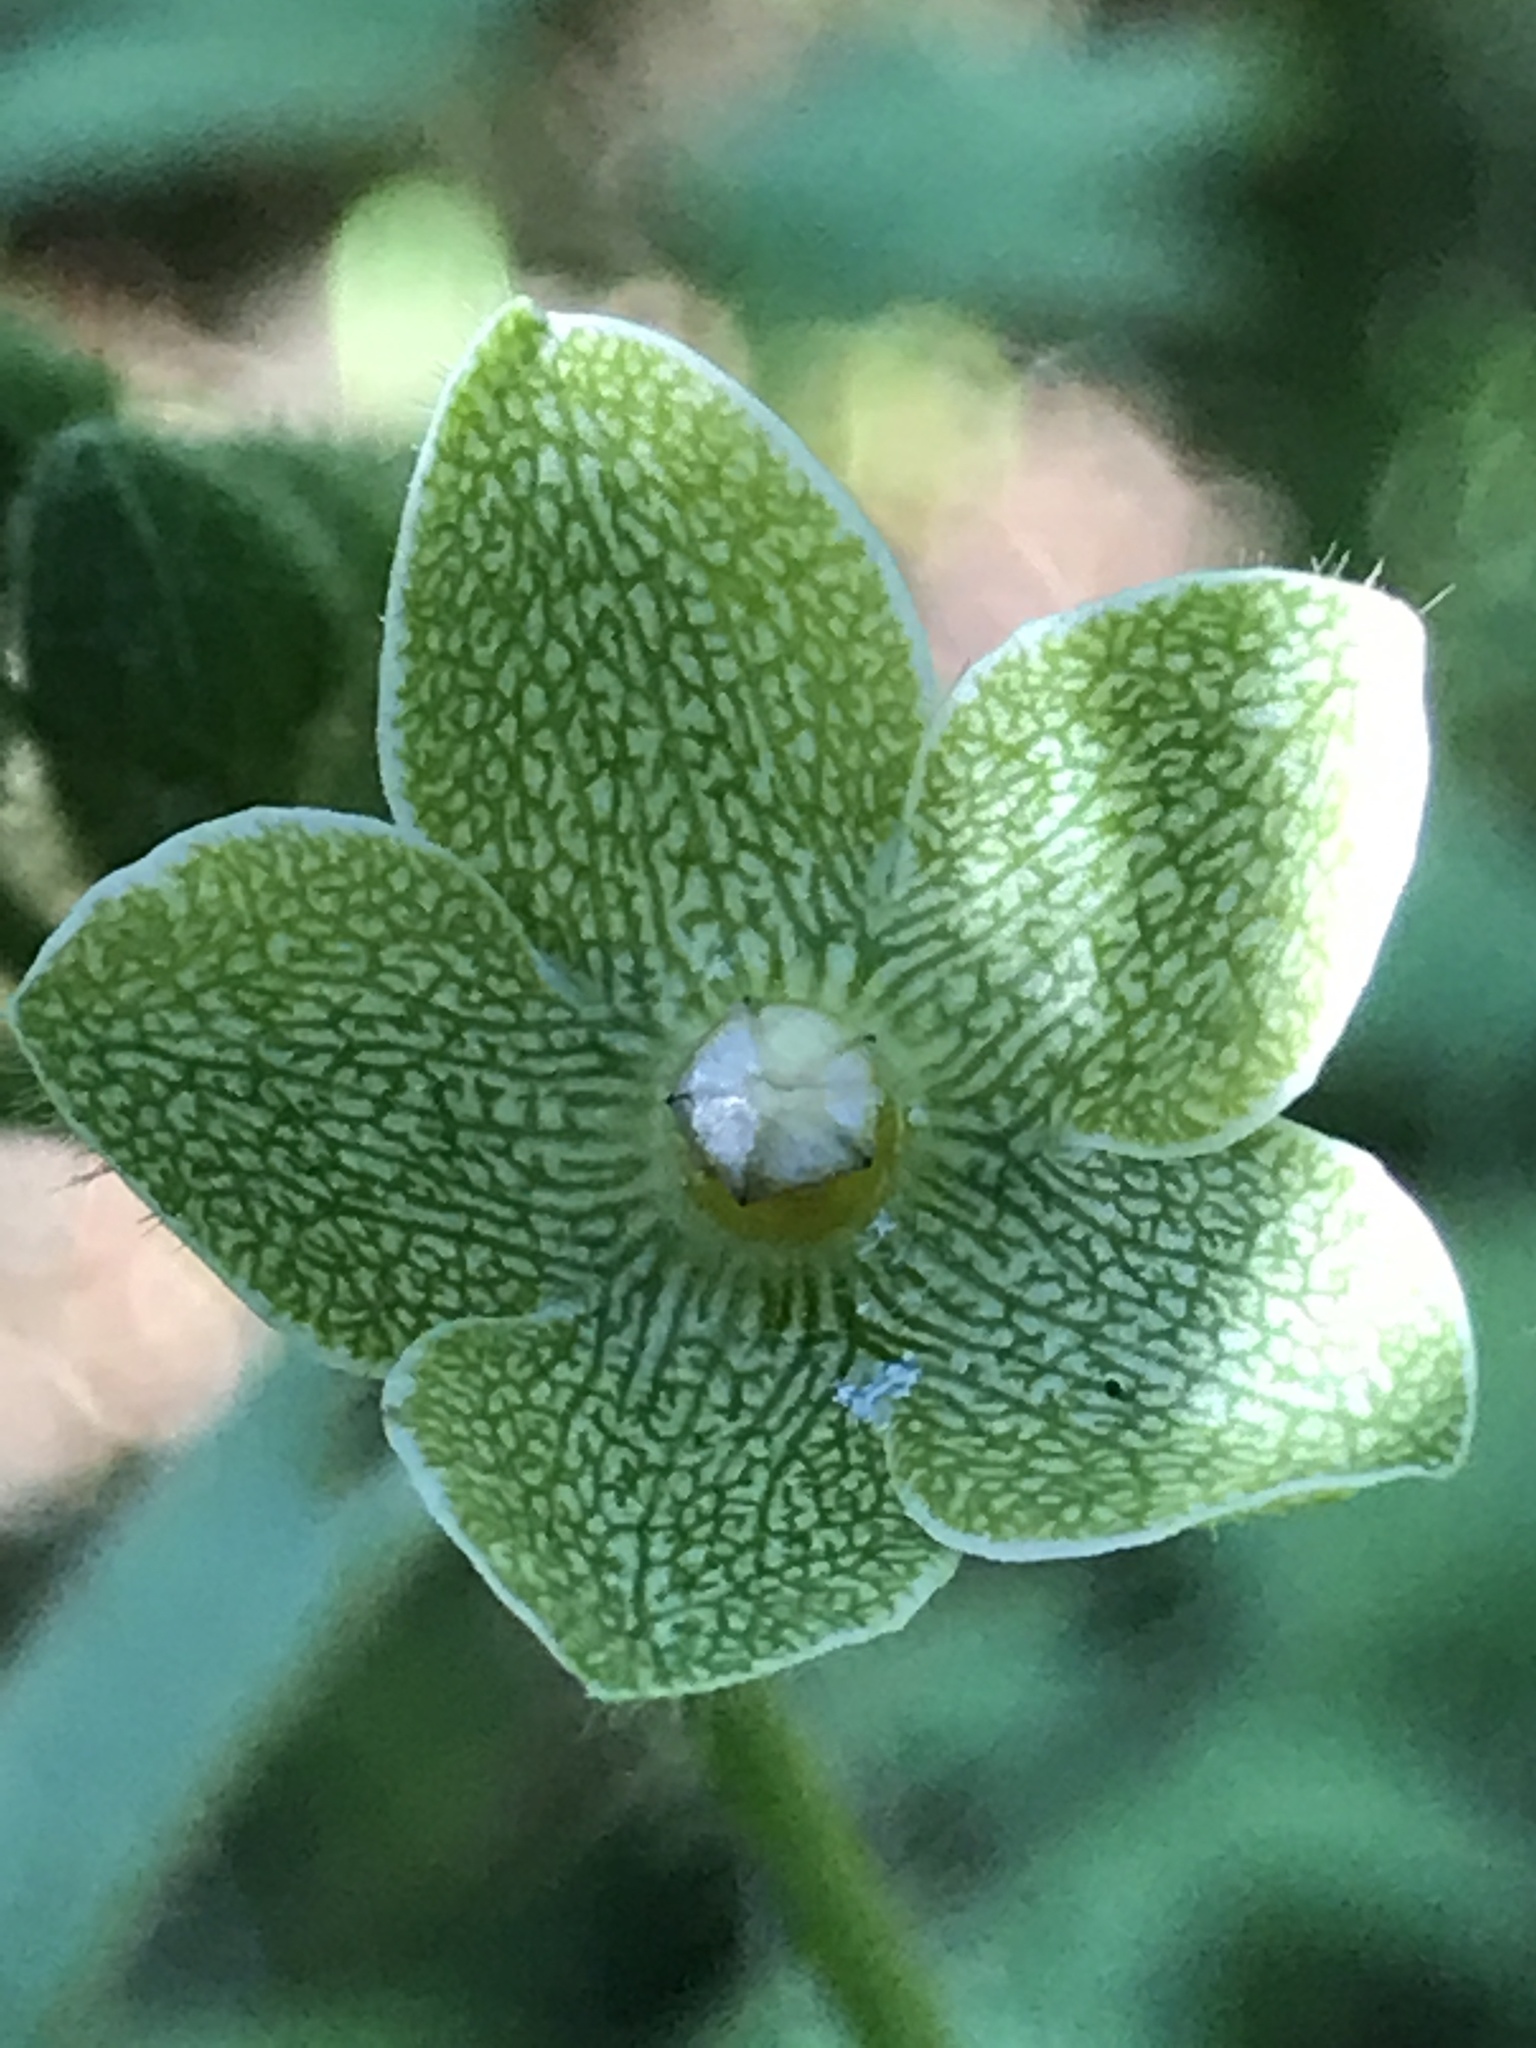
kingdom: Plantae
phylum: Tracheophyta
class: Magnoliopsida
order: Gentianales
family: Apocynaceae
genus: Dictyanthus
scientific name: Dictyanthus reticulatus
